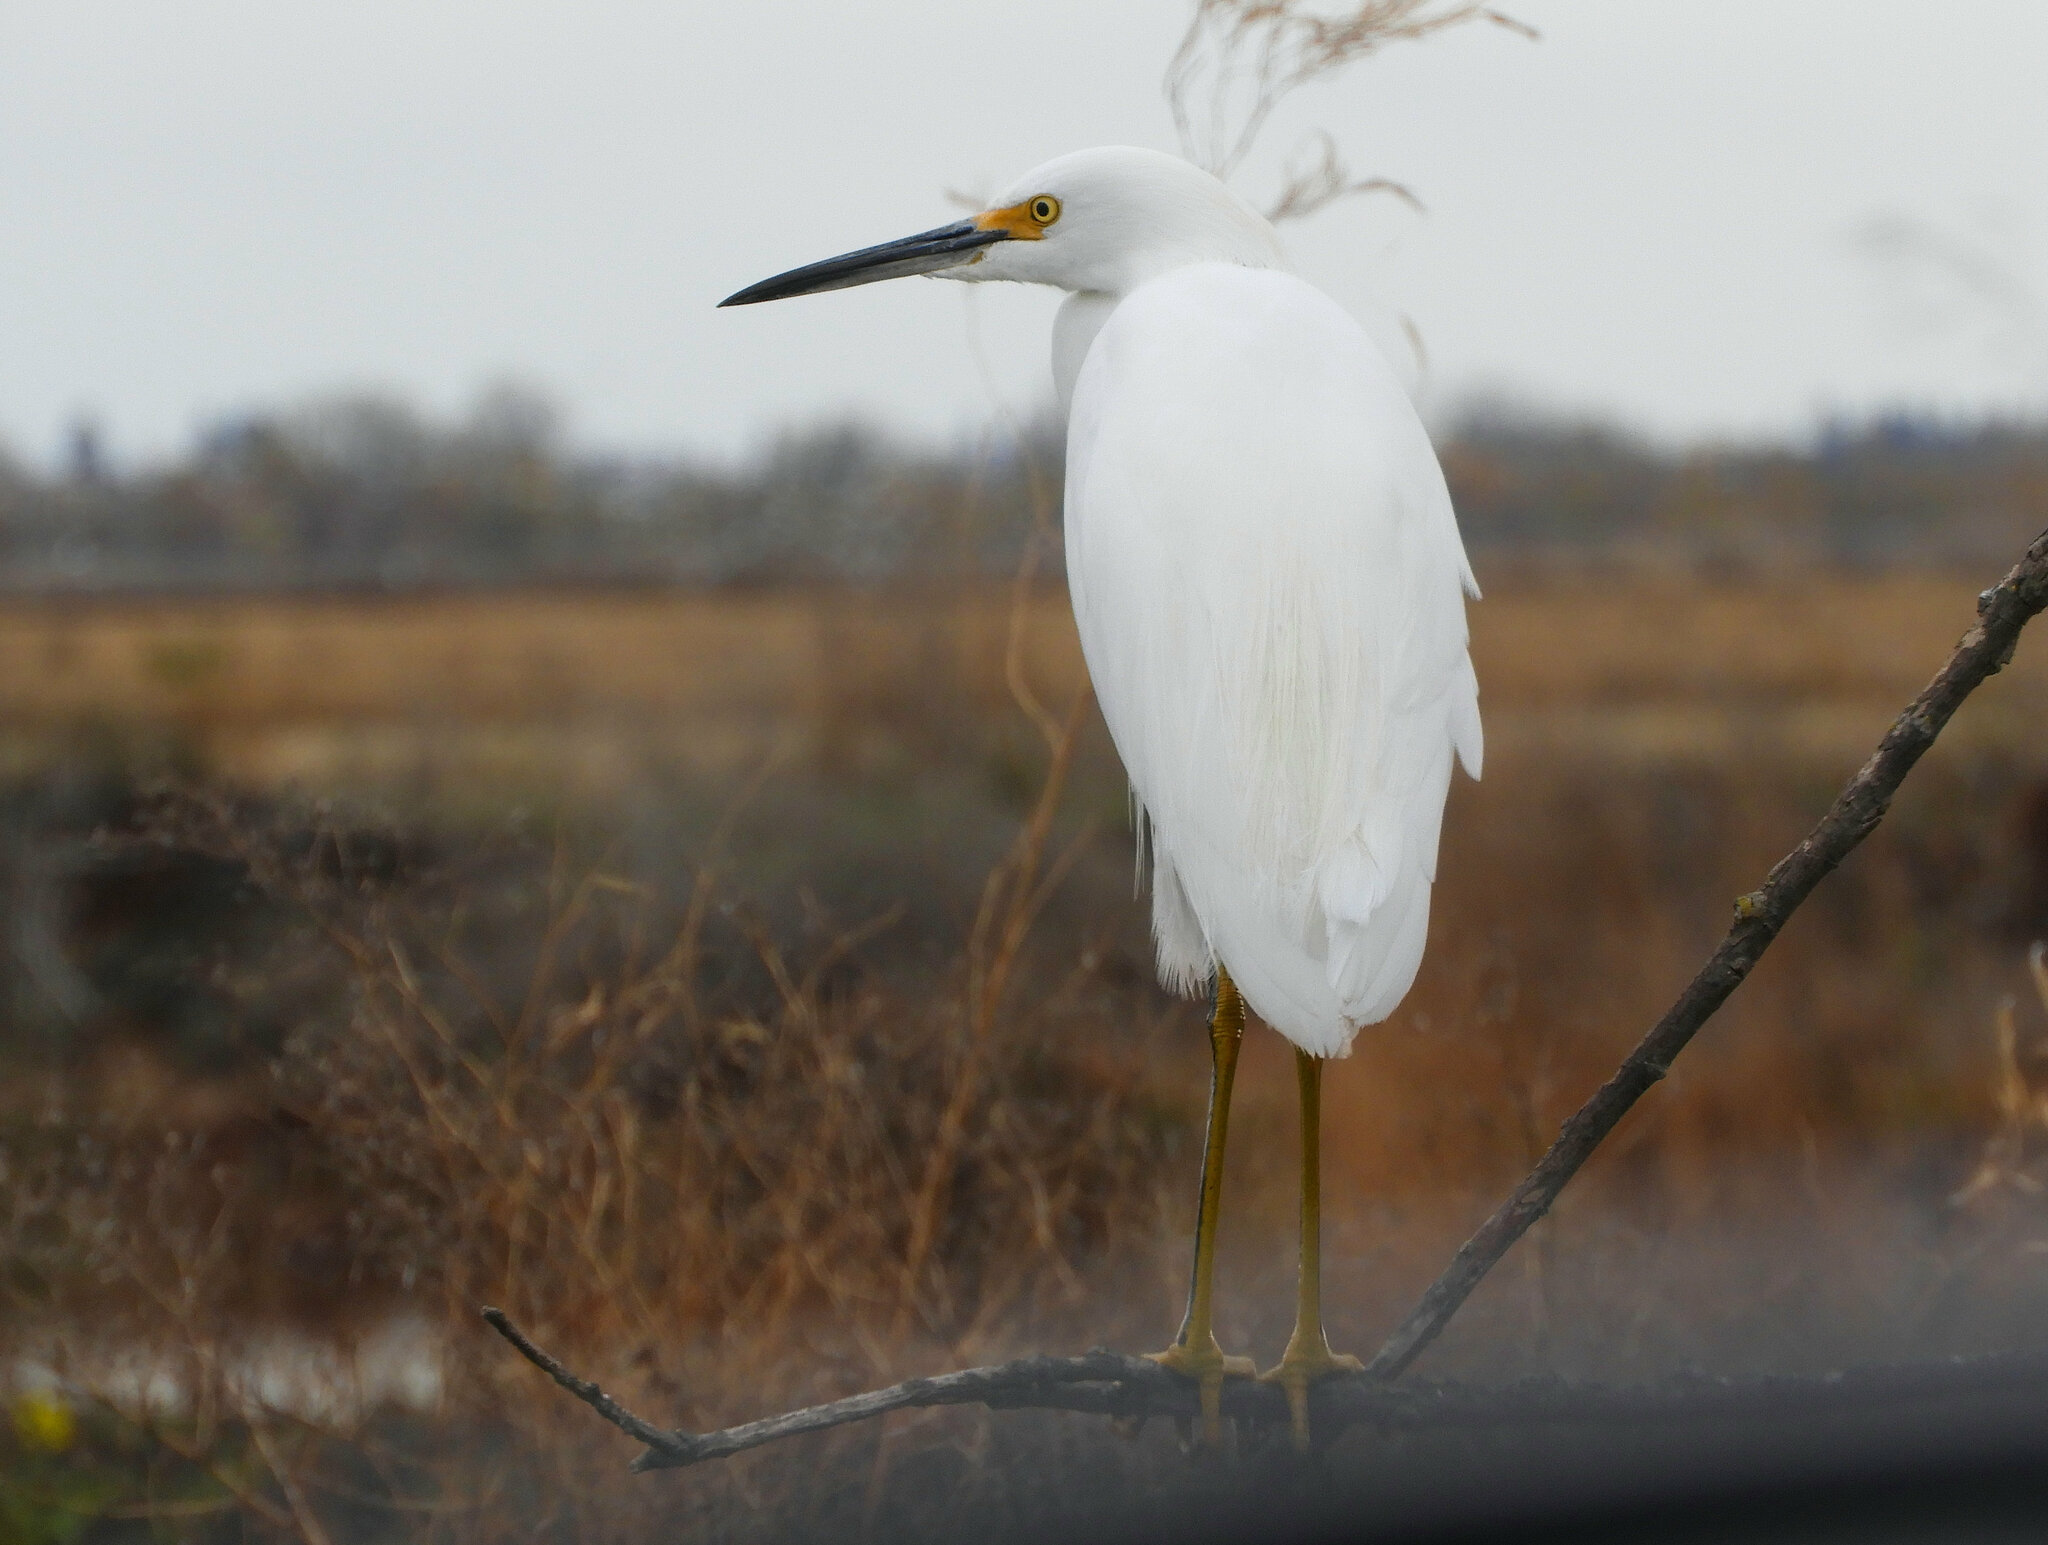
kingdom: Animalia
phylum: Chordata
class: Aves
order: Pelecaniformes
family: Ardeidae
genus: Egretta
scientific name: Egretta thula
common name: Snowy egret
